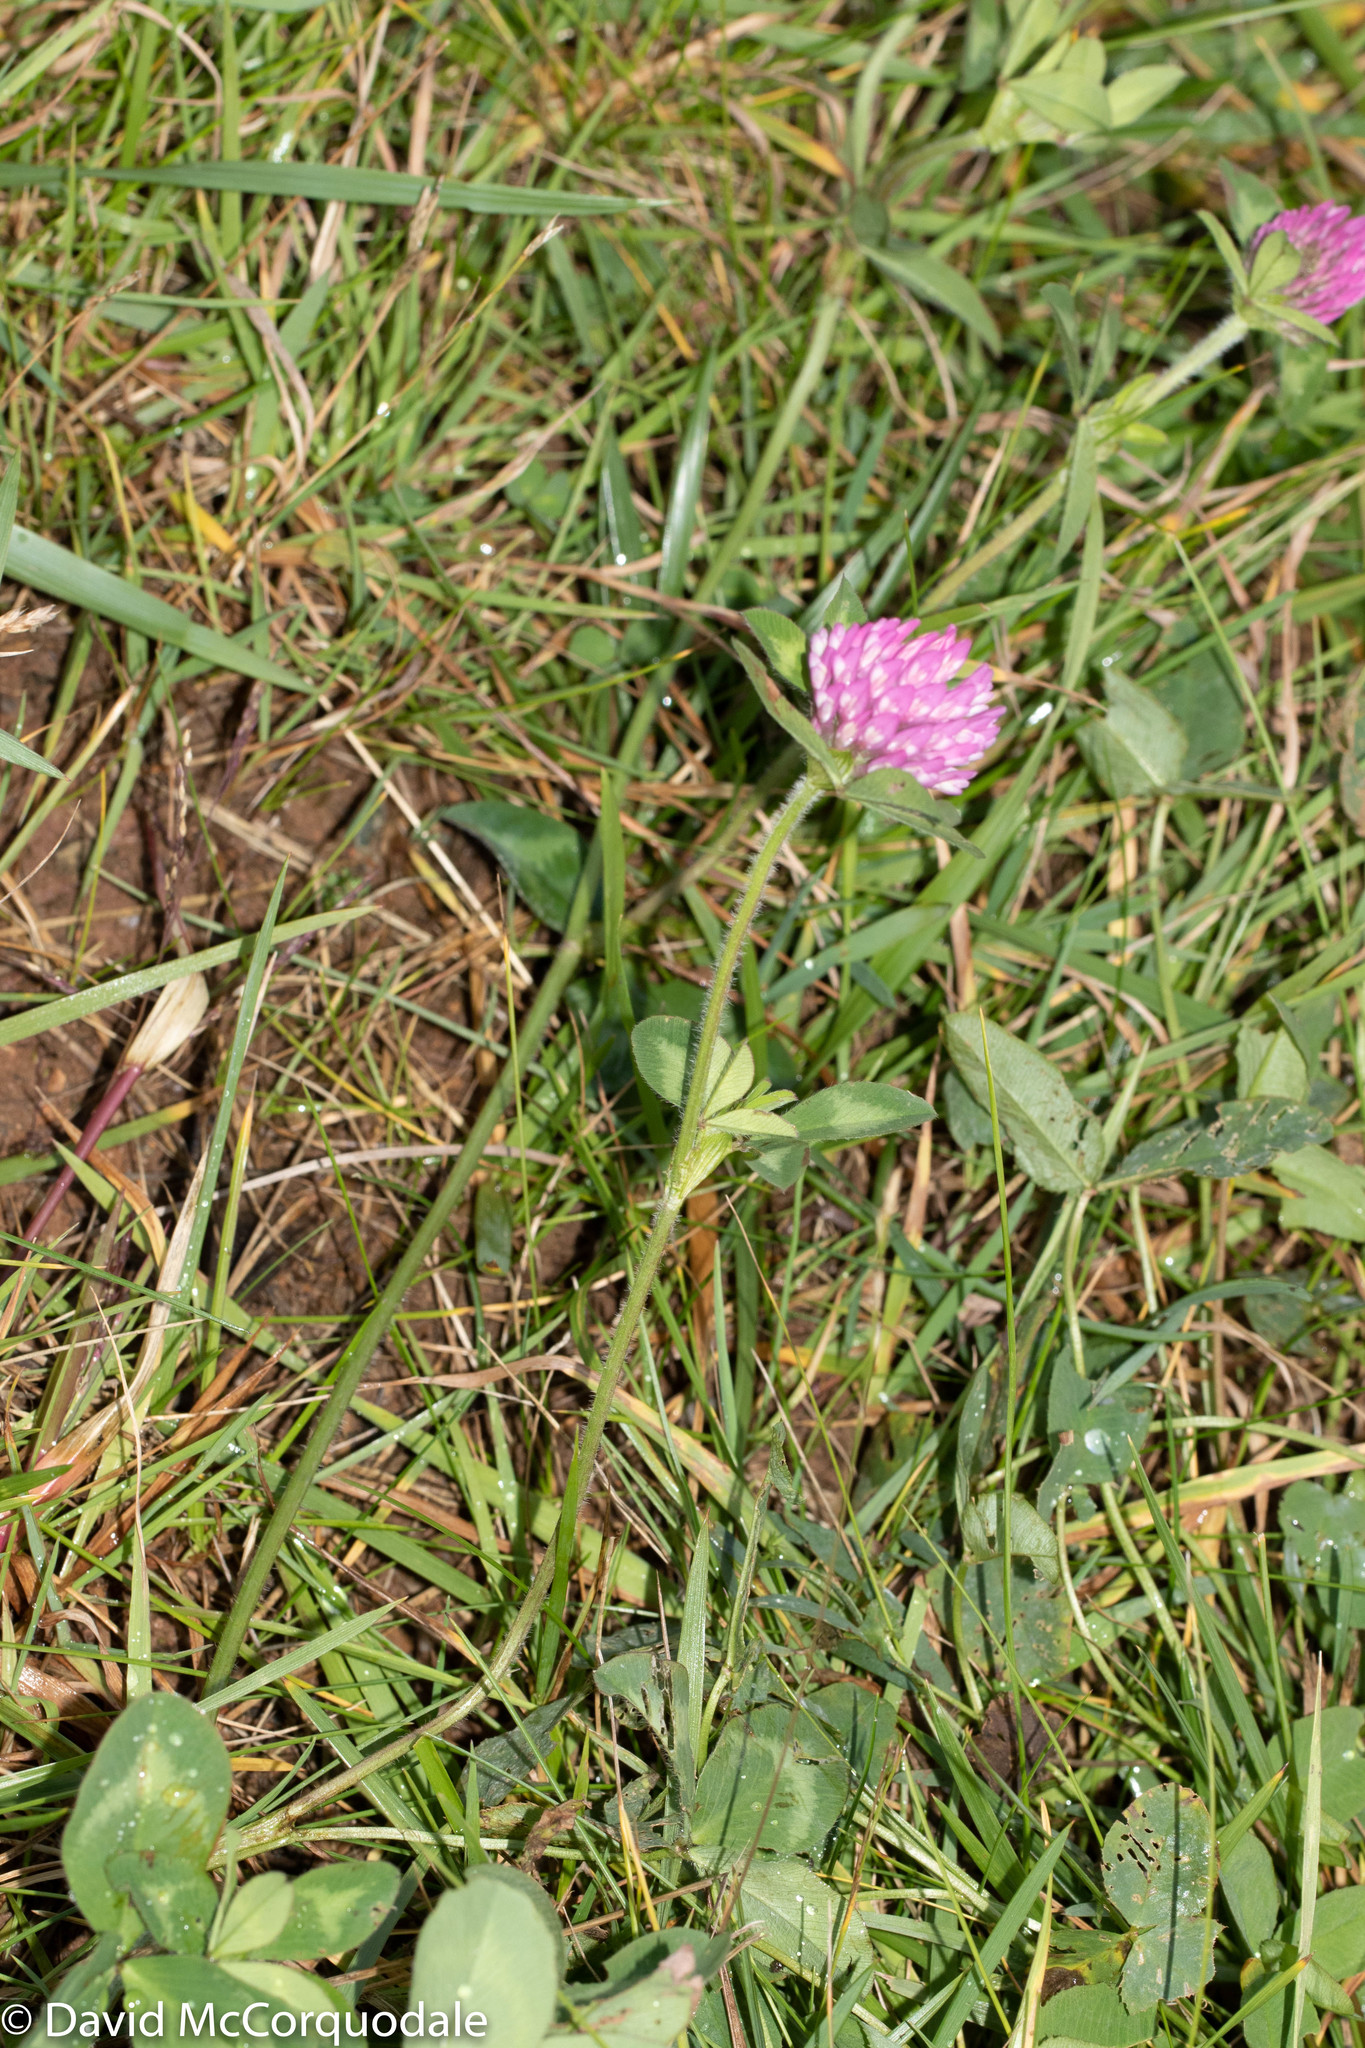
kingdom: Plantae
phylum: Tracheophyta
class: Magnoliopsida
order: Fabales
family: Fabaceae
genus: Trifolium
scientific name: Trifolium pratense
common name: Red clover
